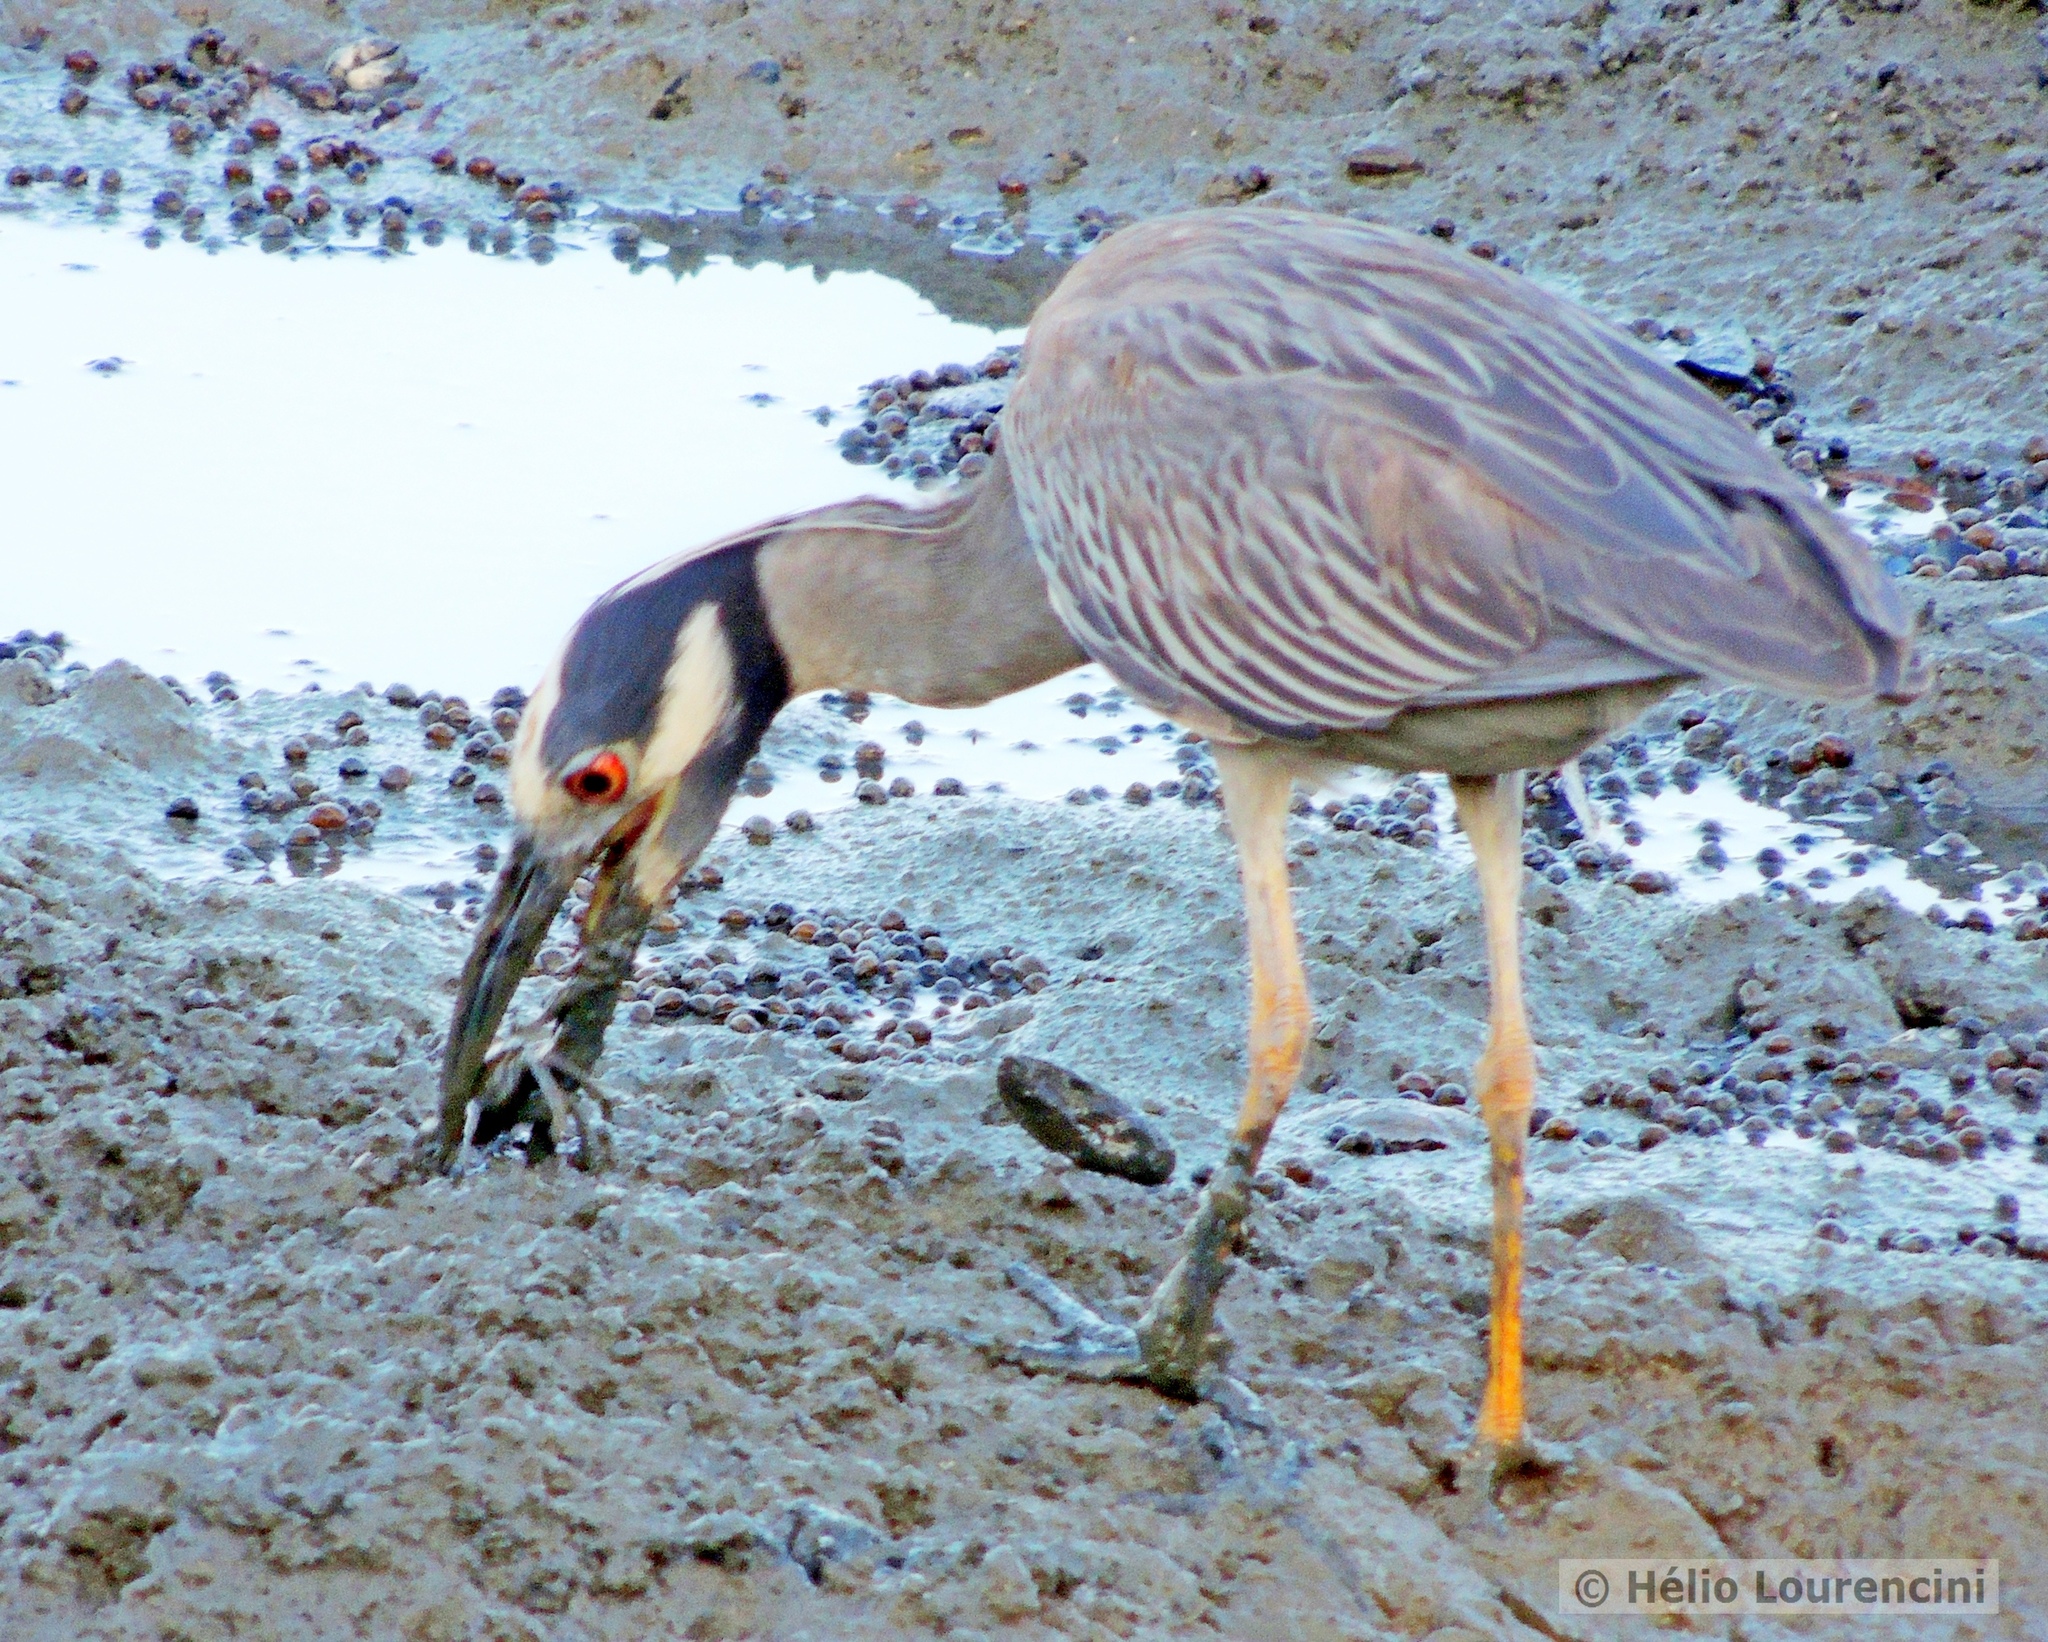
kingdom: Animalia
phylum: Chordata
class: Aves
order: Pelecaniformes
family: Ardeidae
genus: Nyctanassa
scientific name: Nyctanassa violacea
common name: Yellow-crowned night heron
